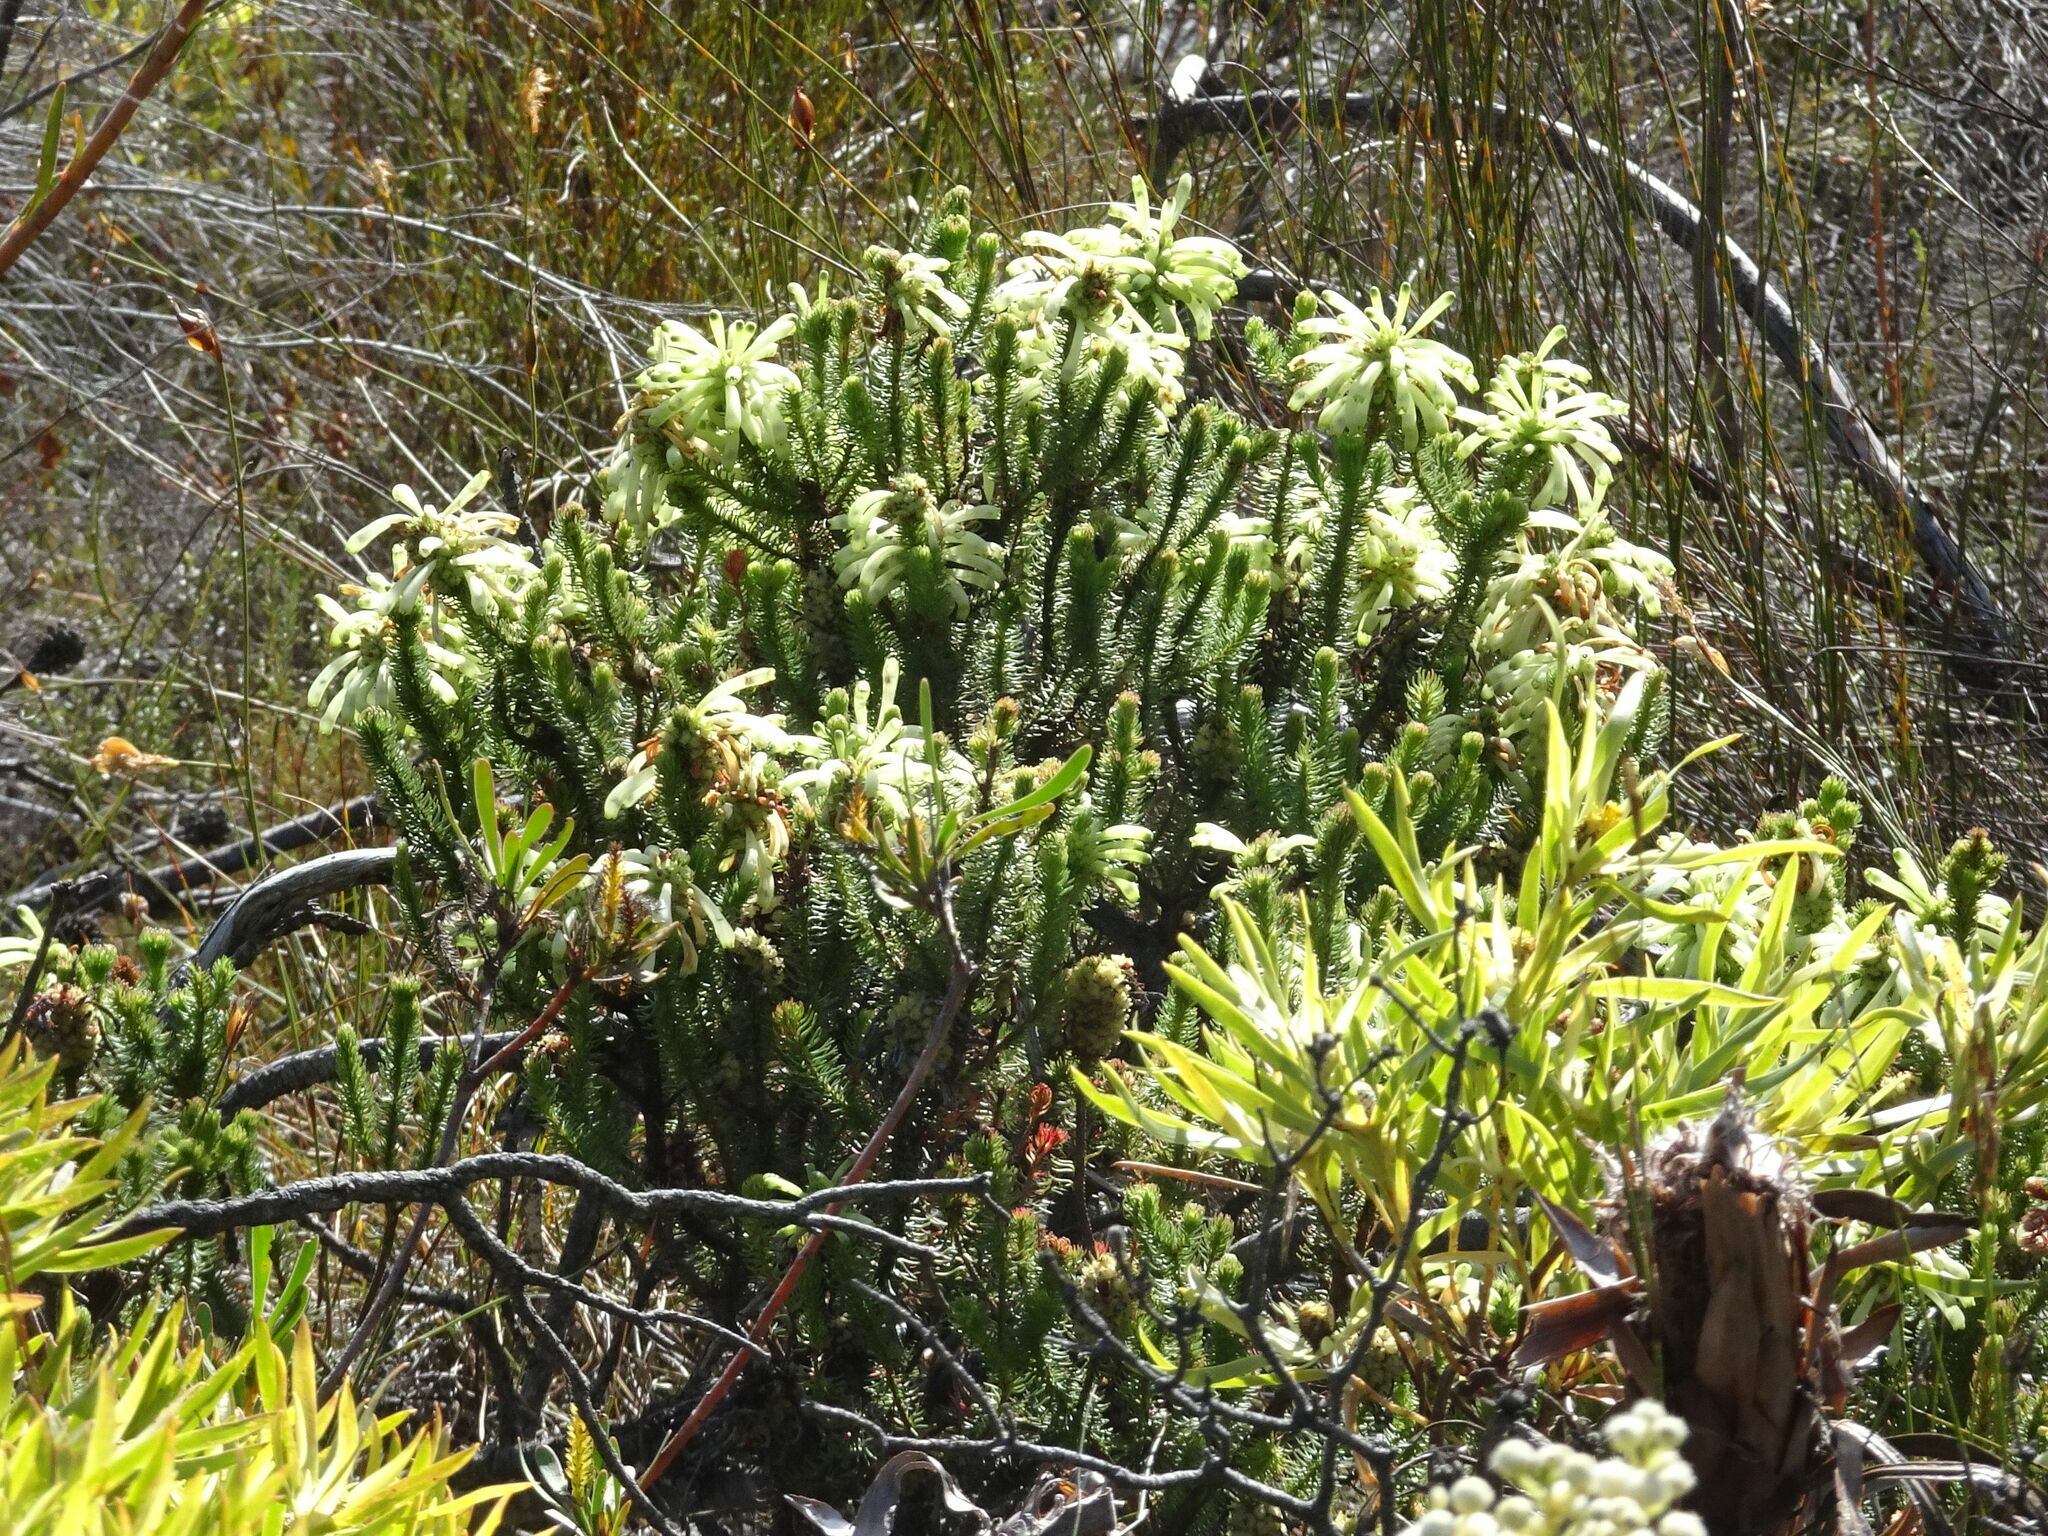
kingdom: Plantae
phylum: Tracheophyta
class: Magnoliopsida
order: Ericales
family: Ericaceae
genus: Erica
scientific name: Erica sessiliflora
